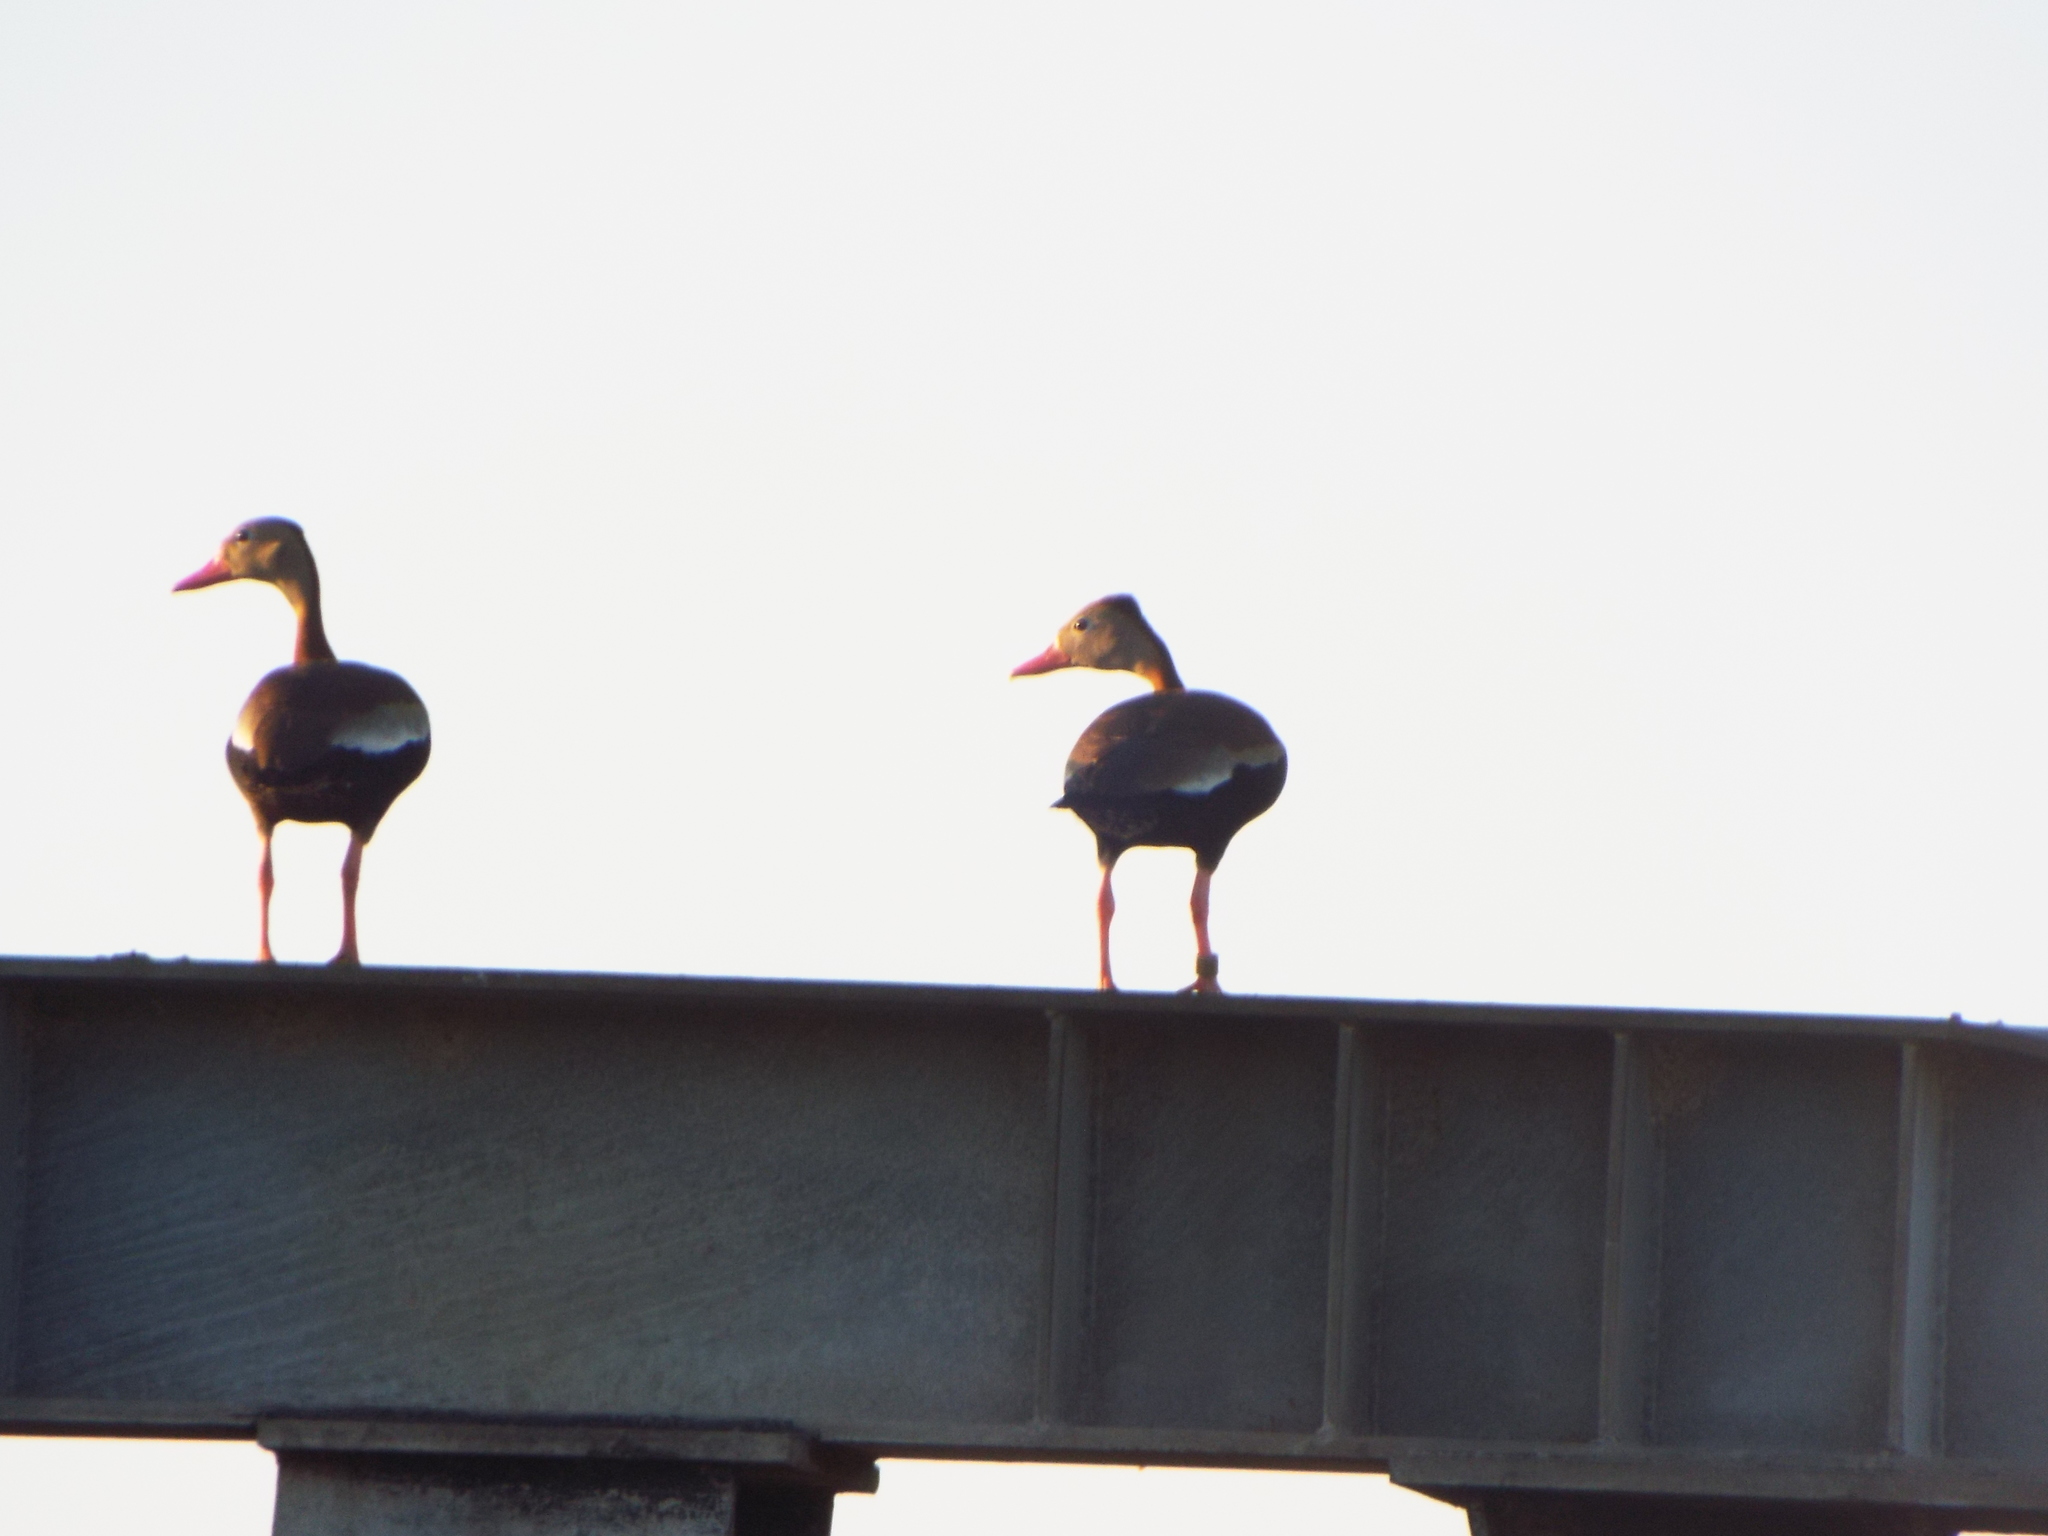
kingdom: Animalia
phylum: Chordata
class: Aves
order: Anseriformes
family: Anatidae
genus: Dendrocygna
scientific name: Dendrocygna autumnalis
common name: Black-bellied whistling duck
